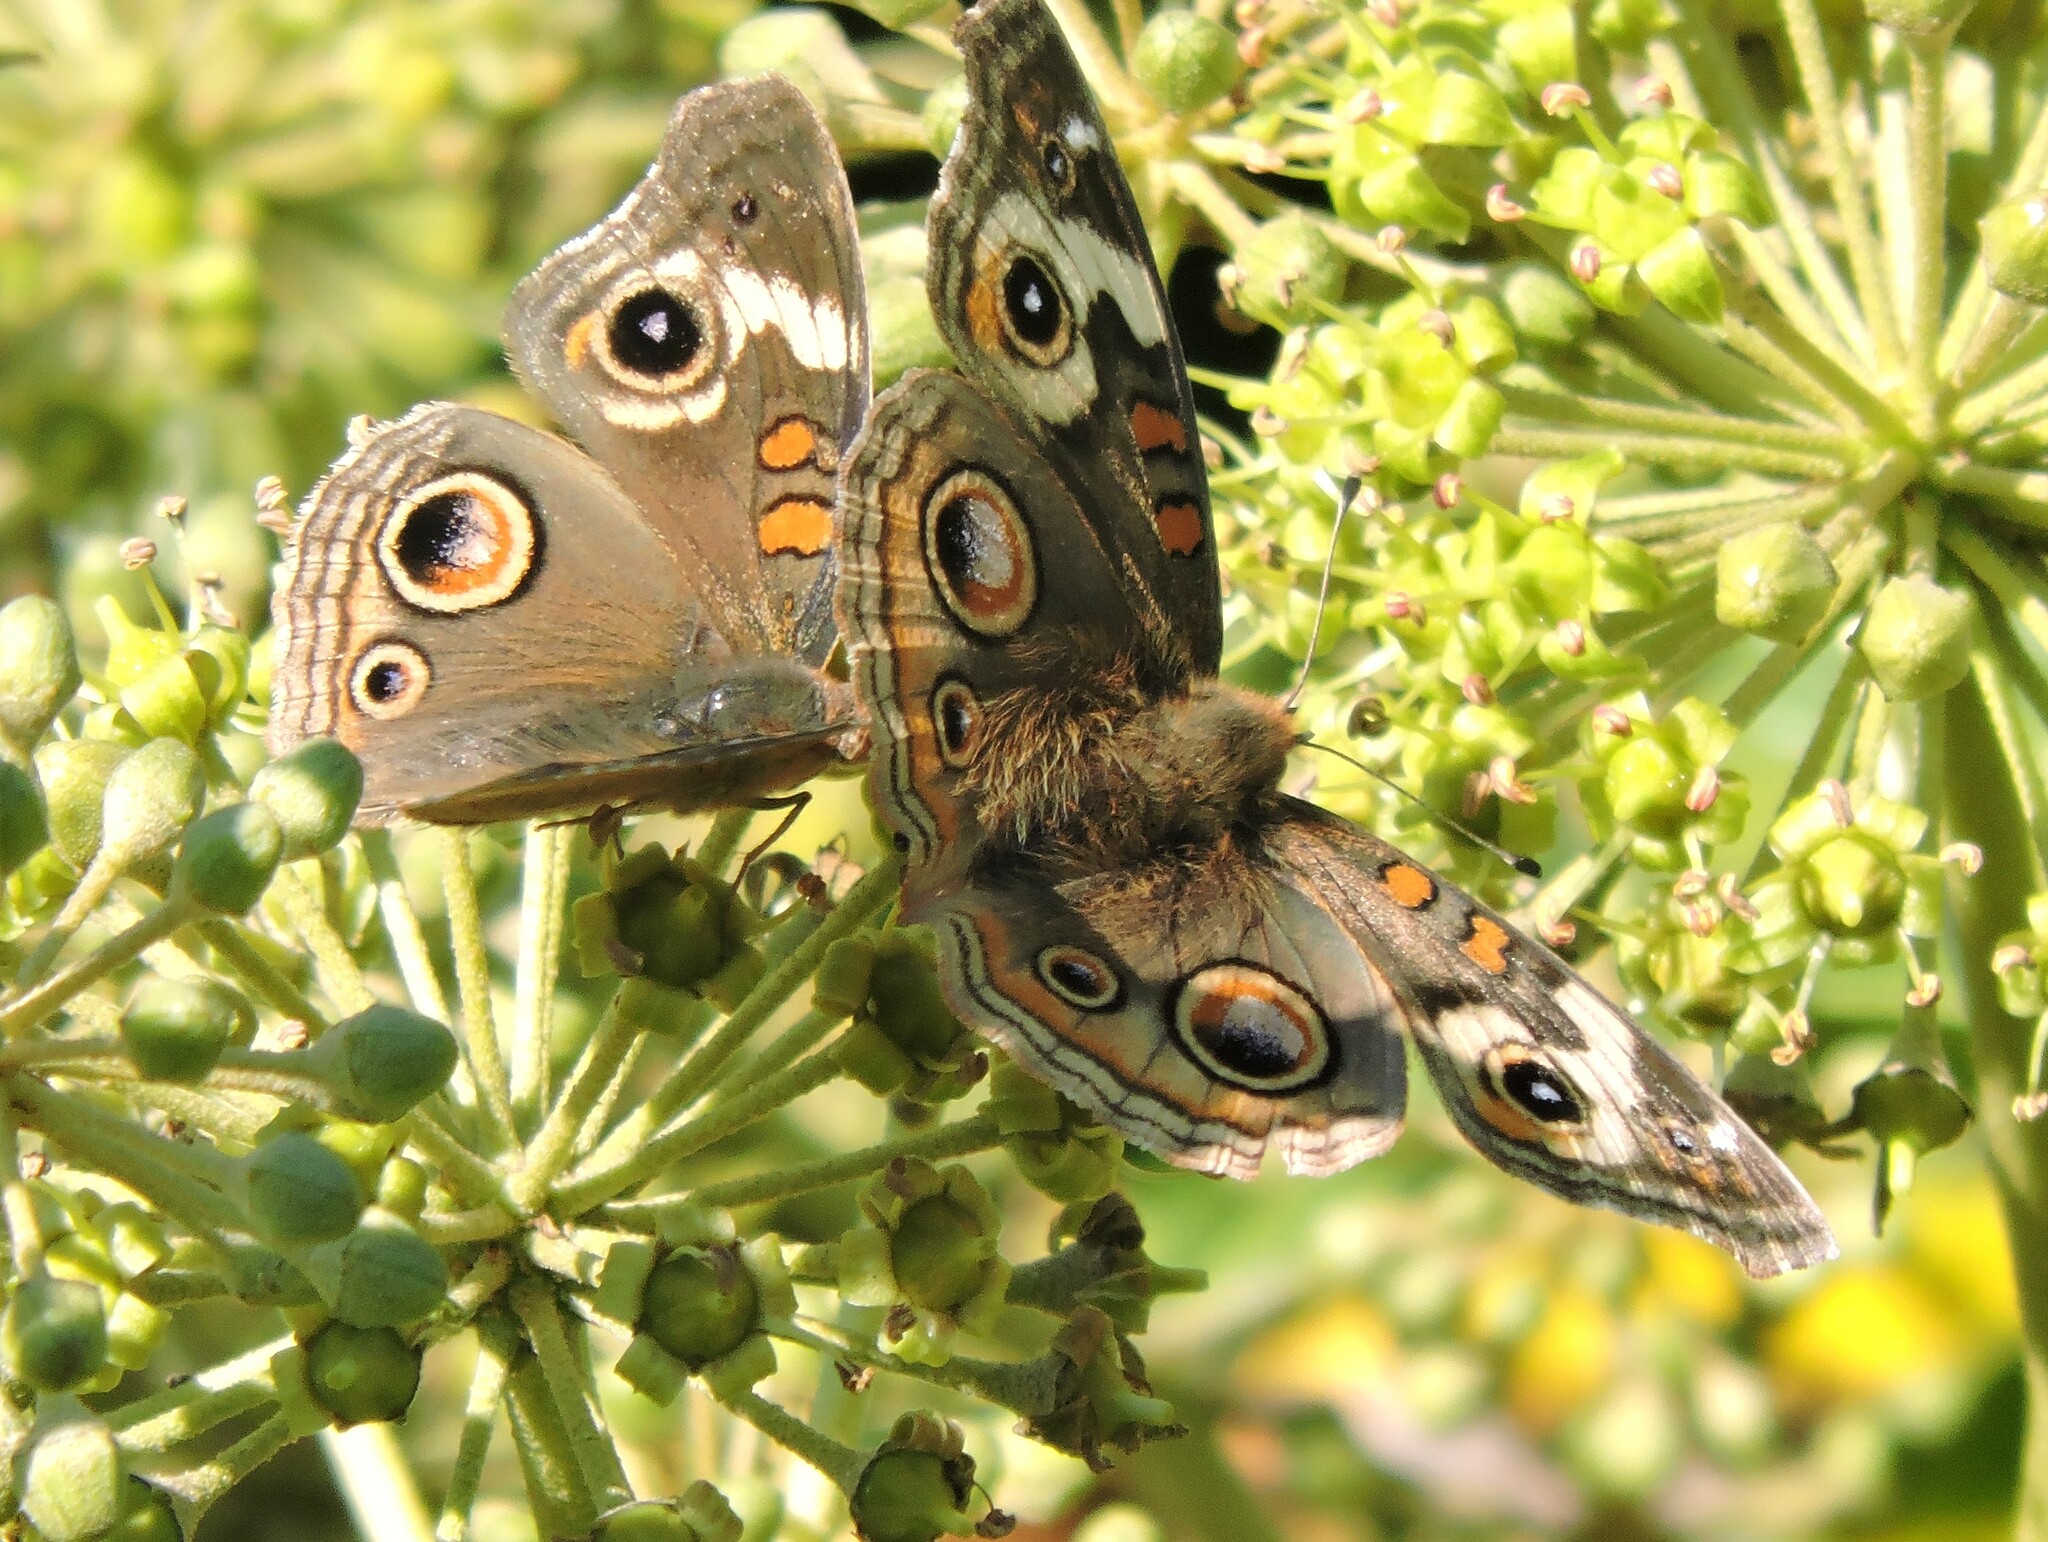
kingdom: Animalia
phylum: Arthropoda
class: Insecta
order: Lepidoptera
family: Nymphalidae
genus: Junonia
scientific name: Junonia grisea
